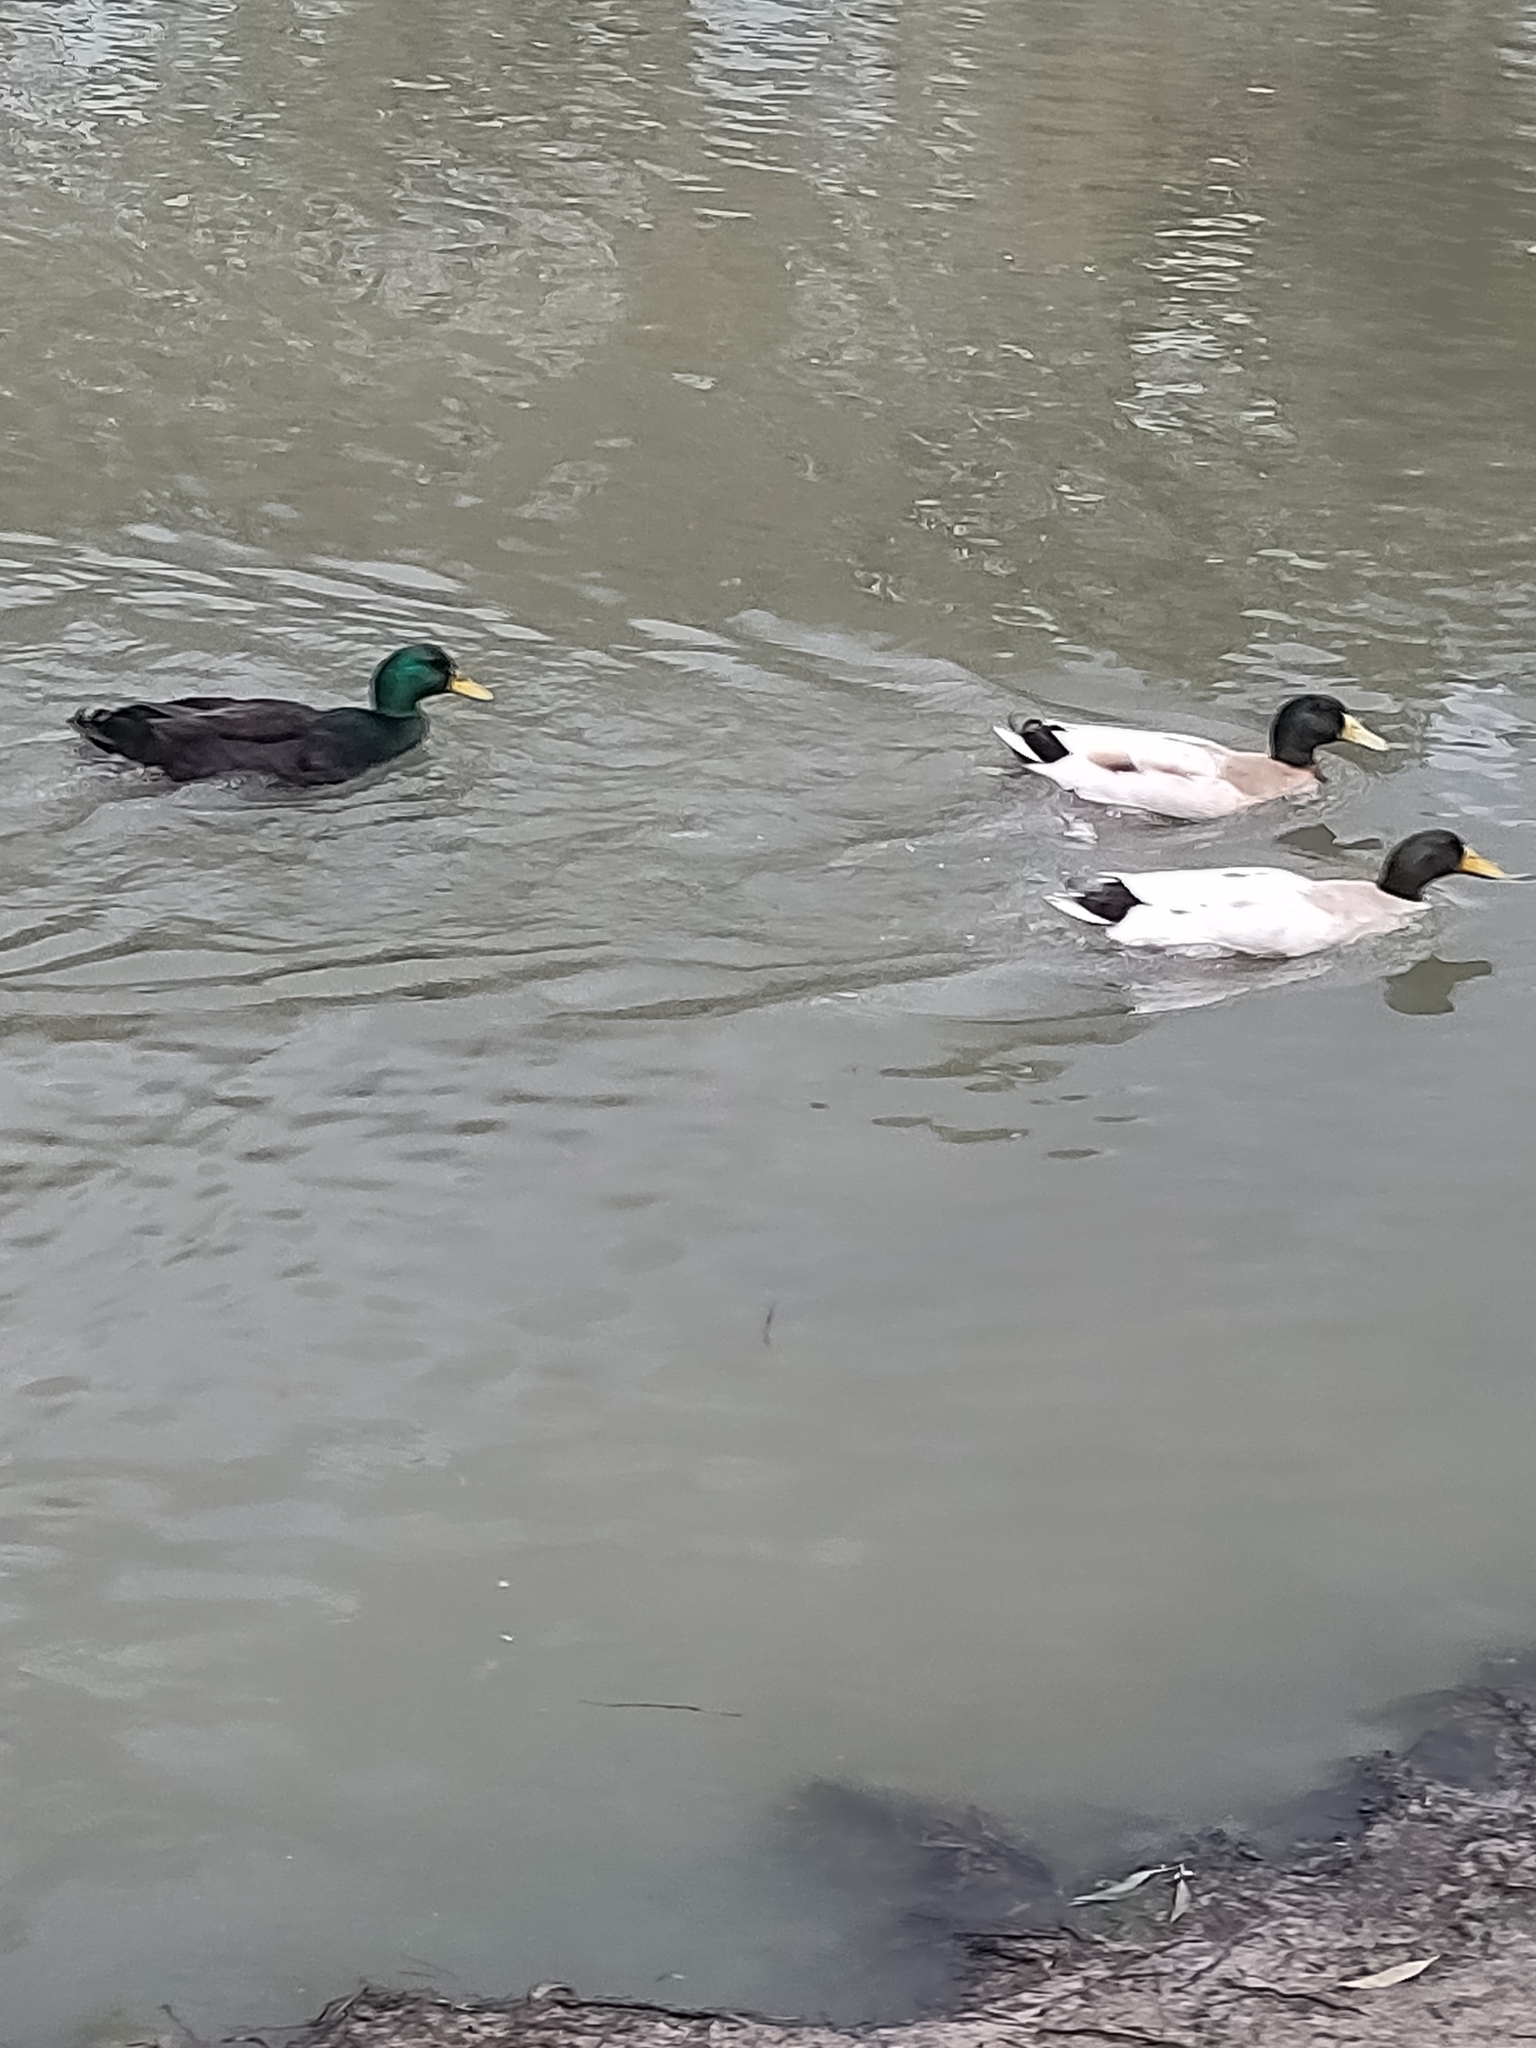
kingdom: Animalia
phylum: Chordata
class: Aves
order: Anseriformes
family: Anatidae
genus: Anas
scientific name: Anas platyrhynchos
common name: Mallard
